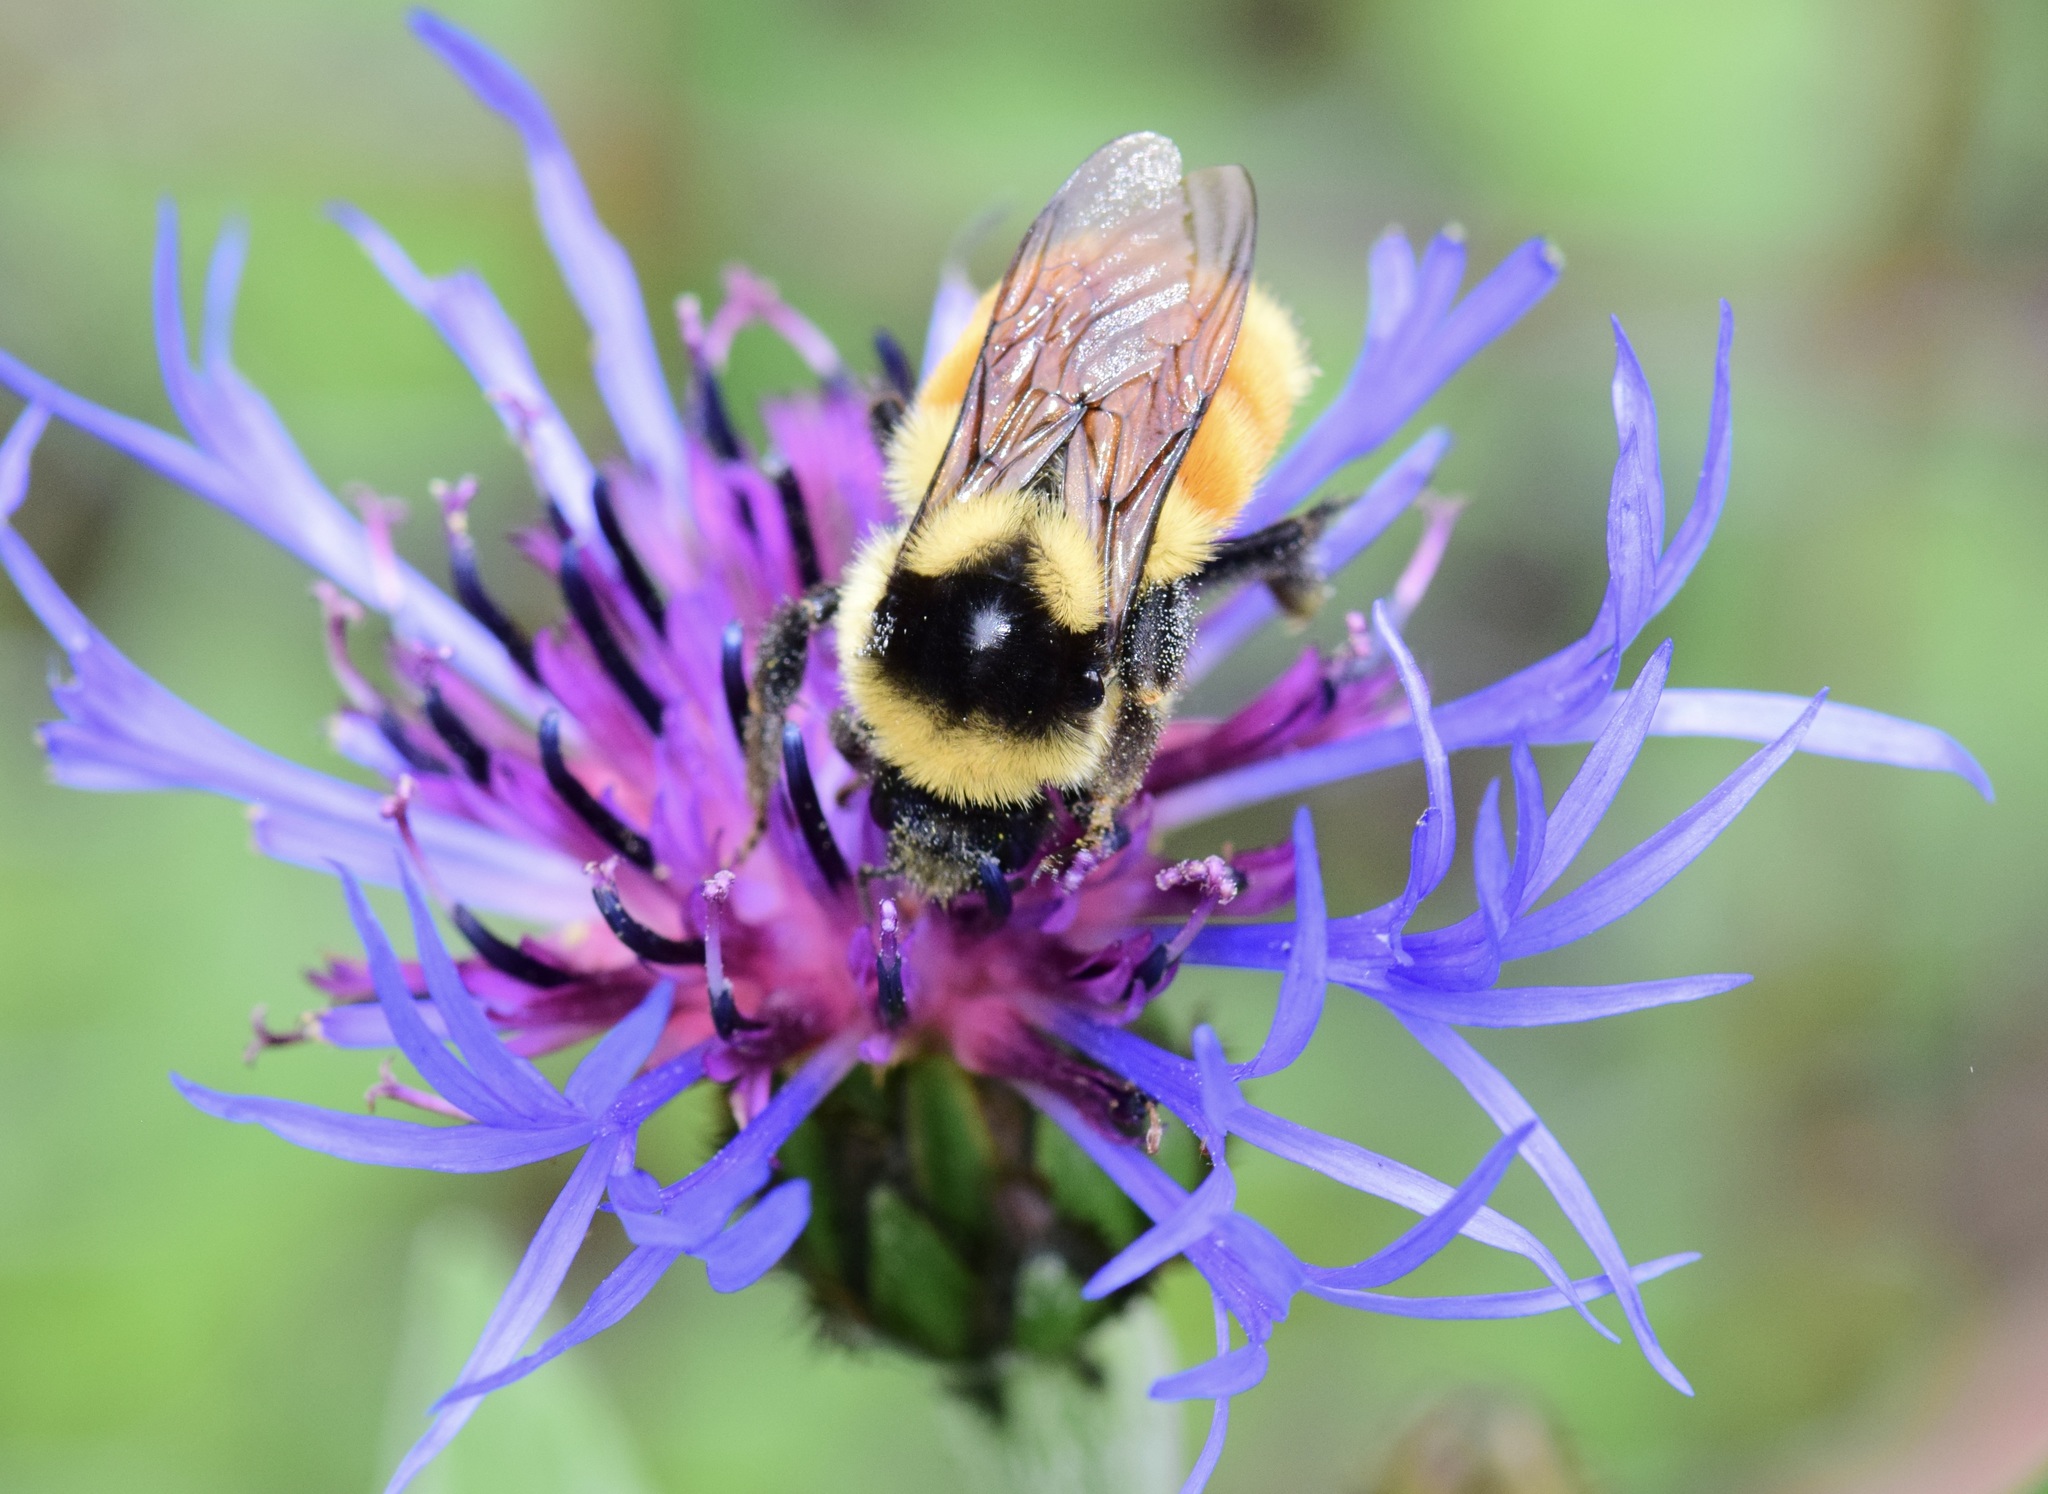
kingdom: Animalia
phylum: Arthropoda
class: Insecta
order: Hymenoptera
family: Apidae
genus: Bombus
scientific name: Bombus ternarius
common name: Tri-colored bumble bee
